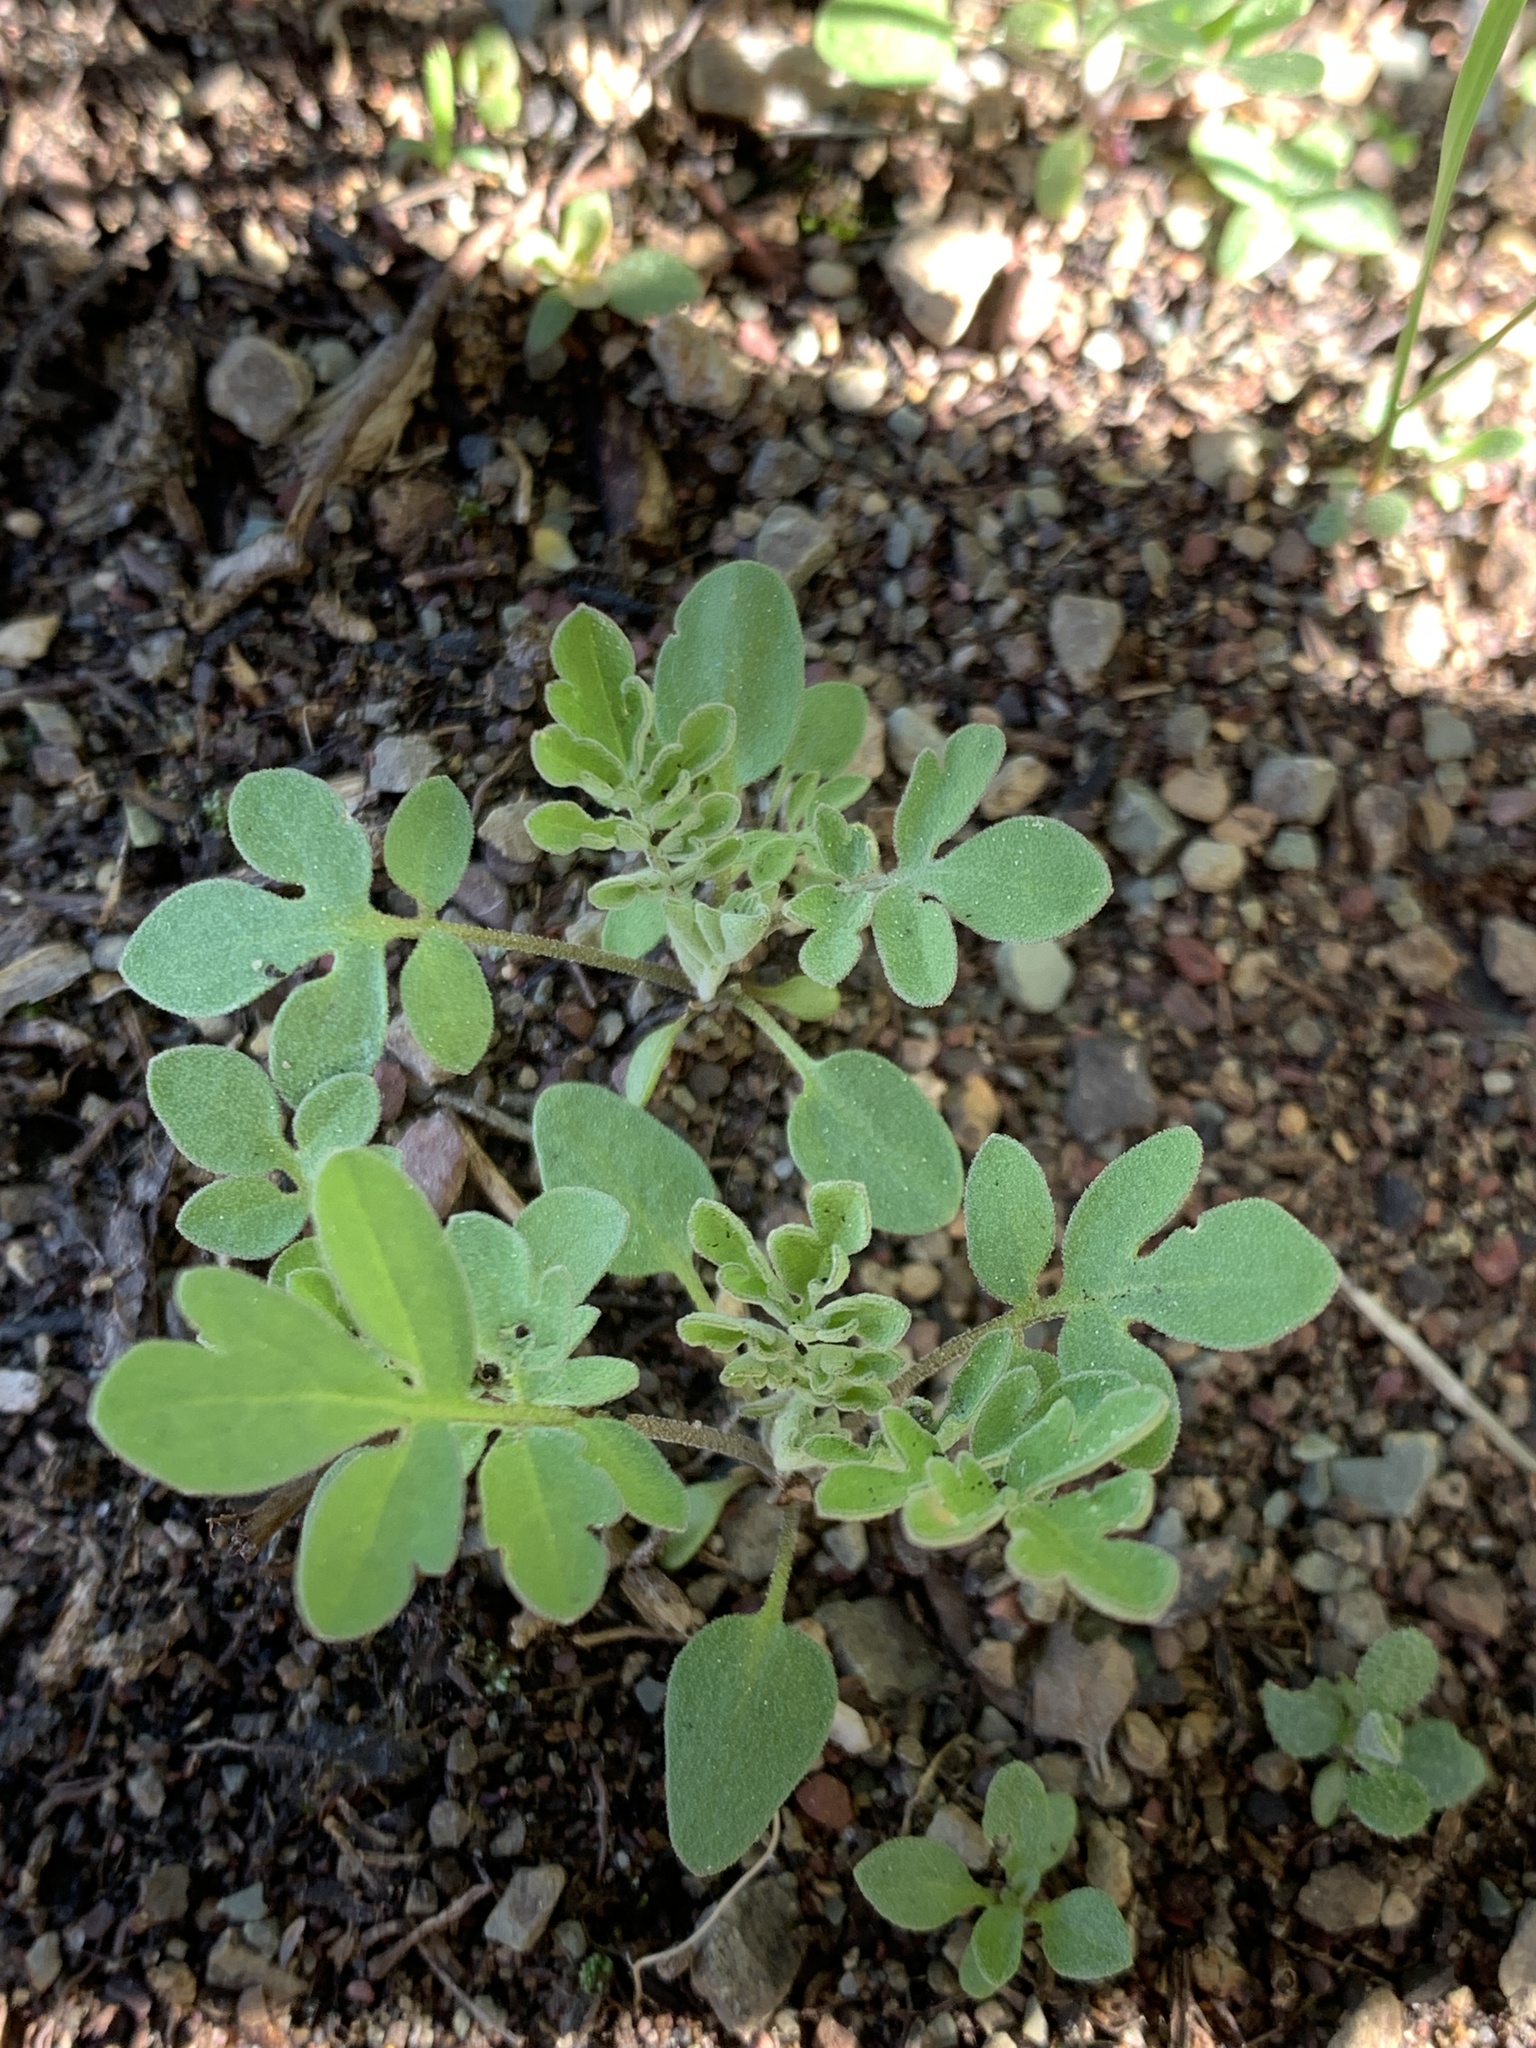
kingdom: Plantae
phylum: Tracheophyta
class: Magnoliopsida
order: Boraginales
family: Hydrophyllaceae
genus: Nemophila
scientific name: Nemophila breviflora
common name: Great basin baby-blue-eyes
